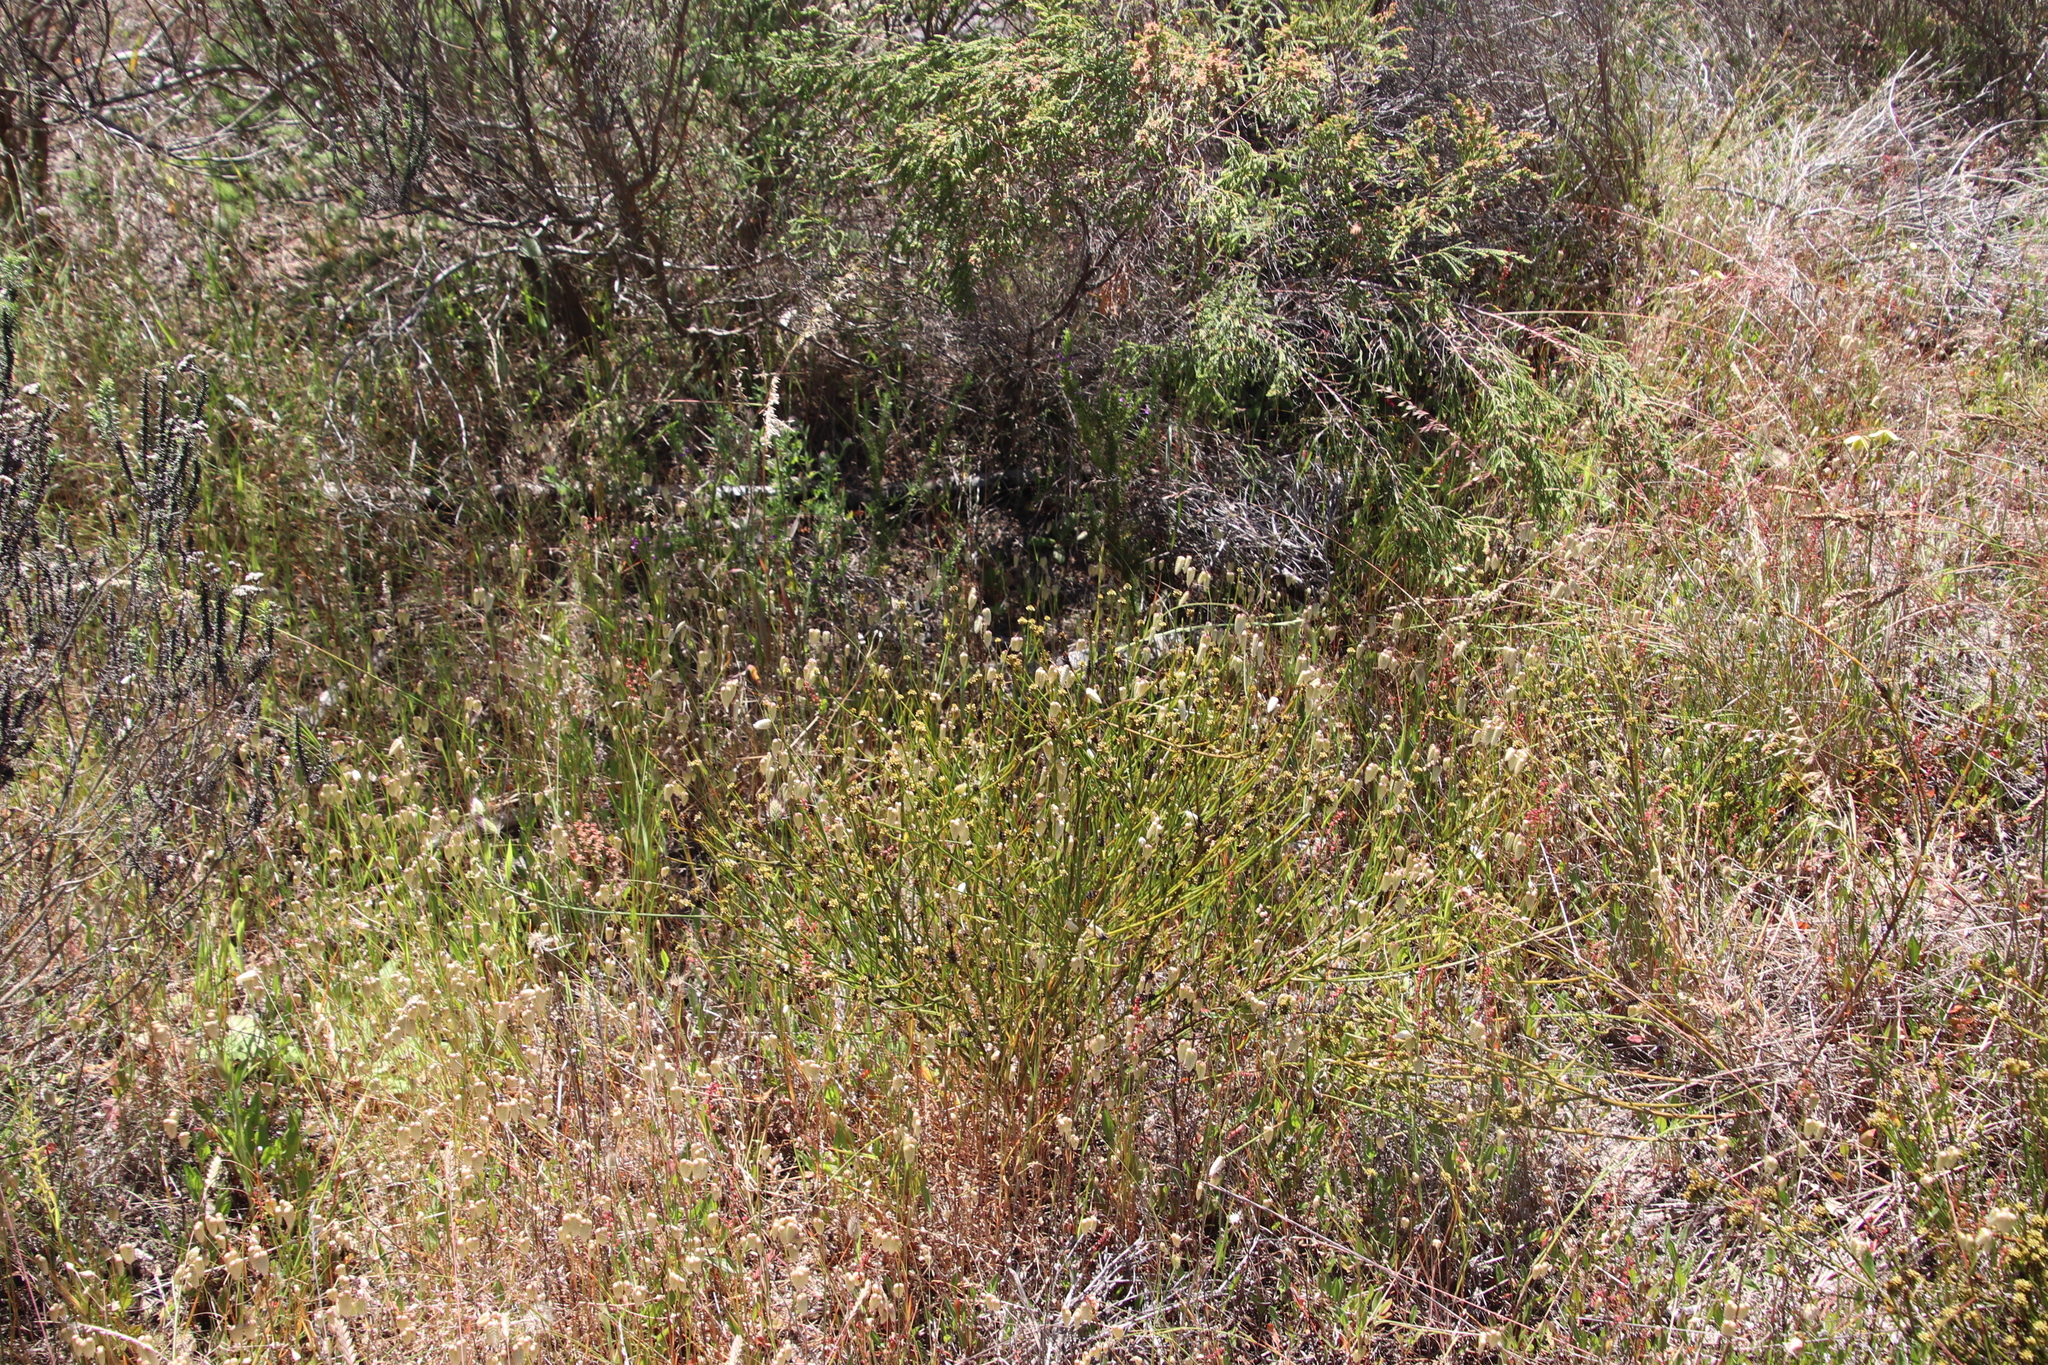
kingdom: Plantae
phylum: Tracheophyta
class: Magnoliopsida
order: Santalales
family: Thesiaceae
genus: Thesium
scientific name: Thesium aggregatum
